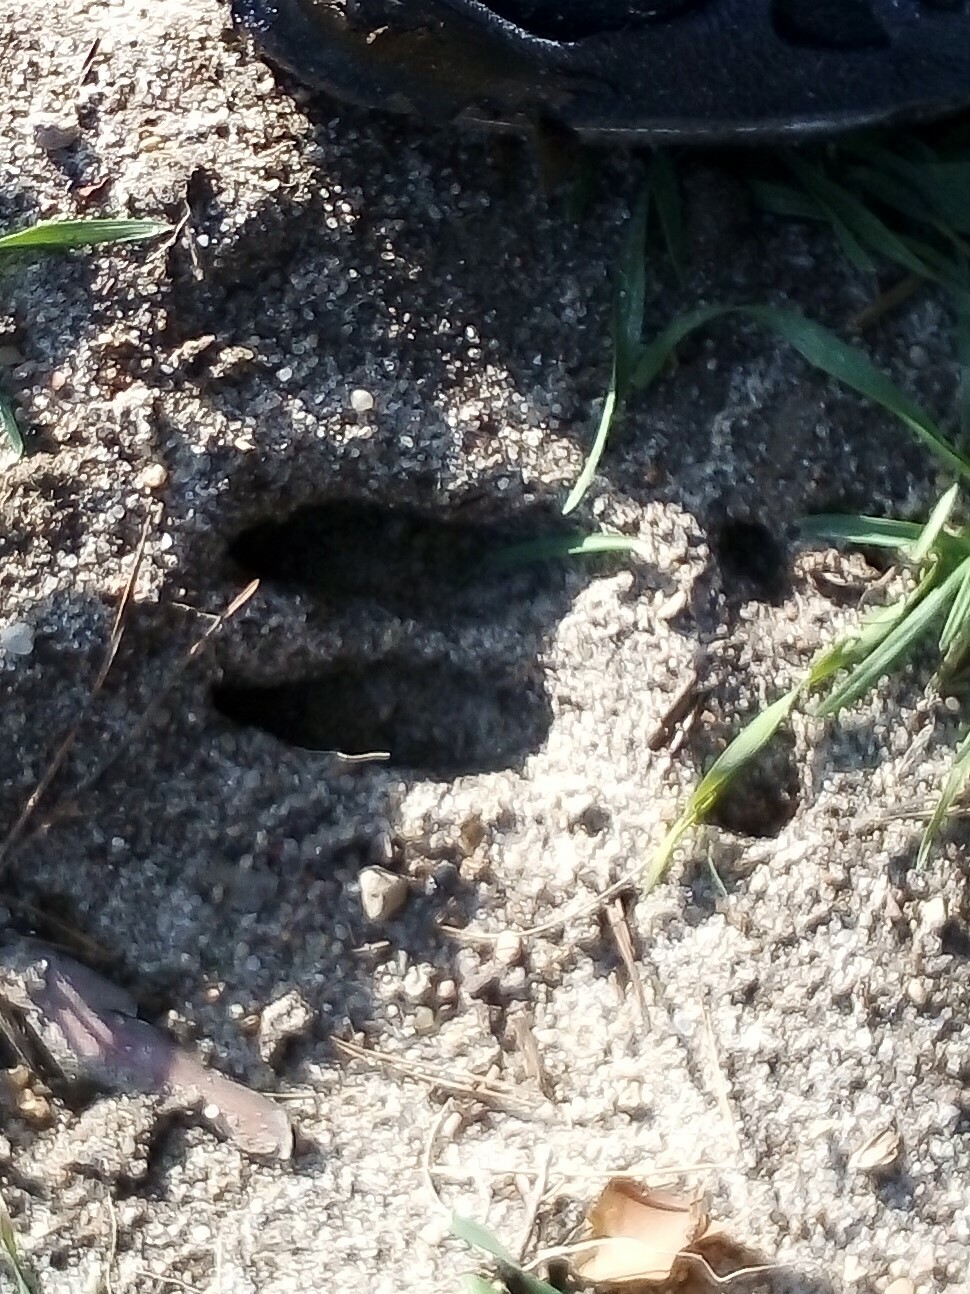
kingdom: Animalia
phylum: Chordata
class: Mammalia
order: Artiodactyla
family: Cervidae
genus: Capreolus
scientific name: Capreolus capreolus
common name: Western roe deer
